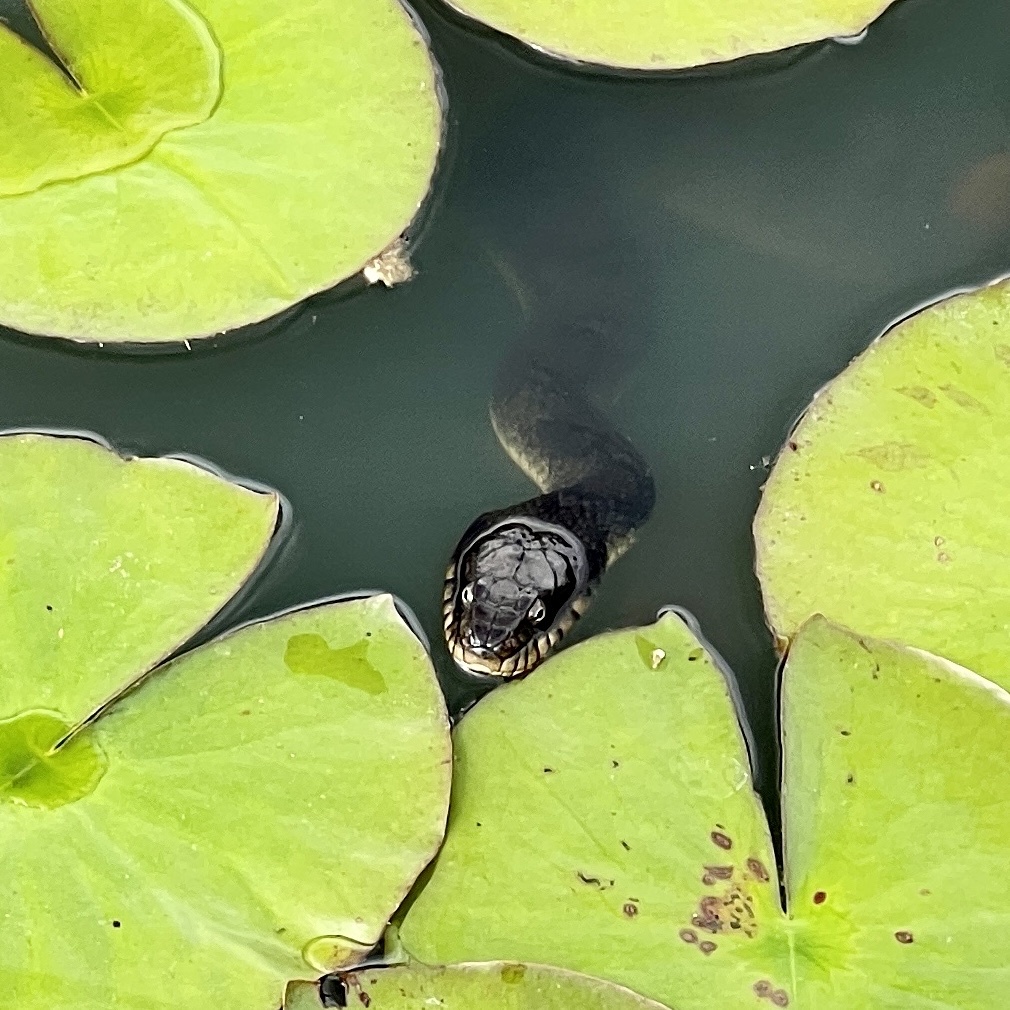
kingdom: Animalia
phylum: Chordata
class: Squamata
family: Colubridae
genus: Nerodia
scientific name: Nerodia sipedon
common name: Northern water snake
